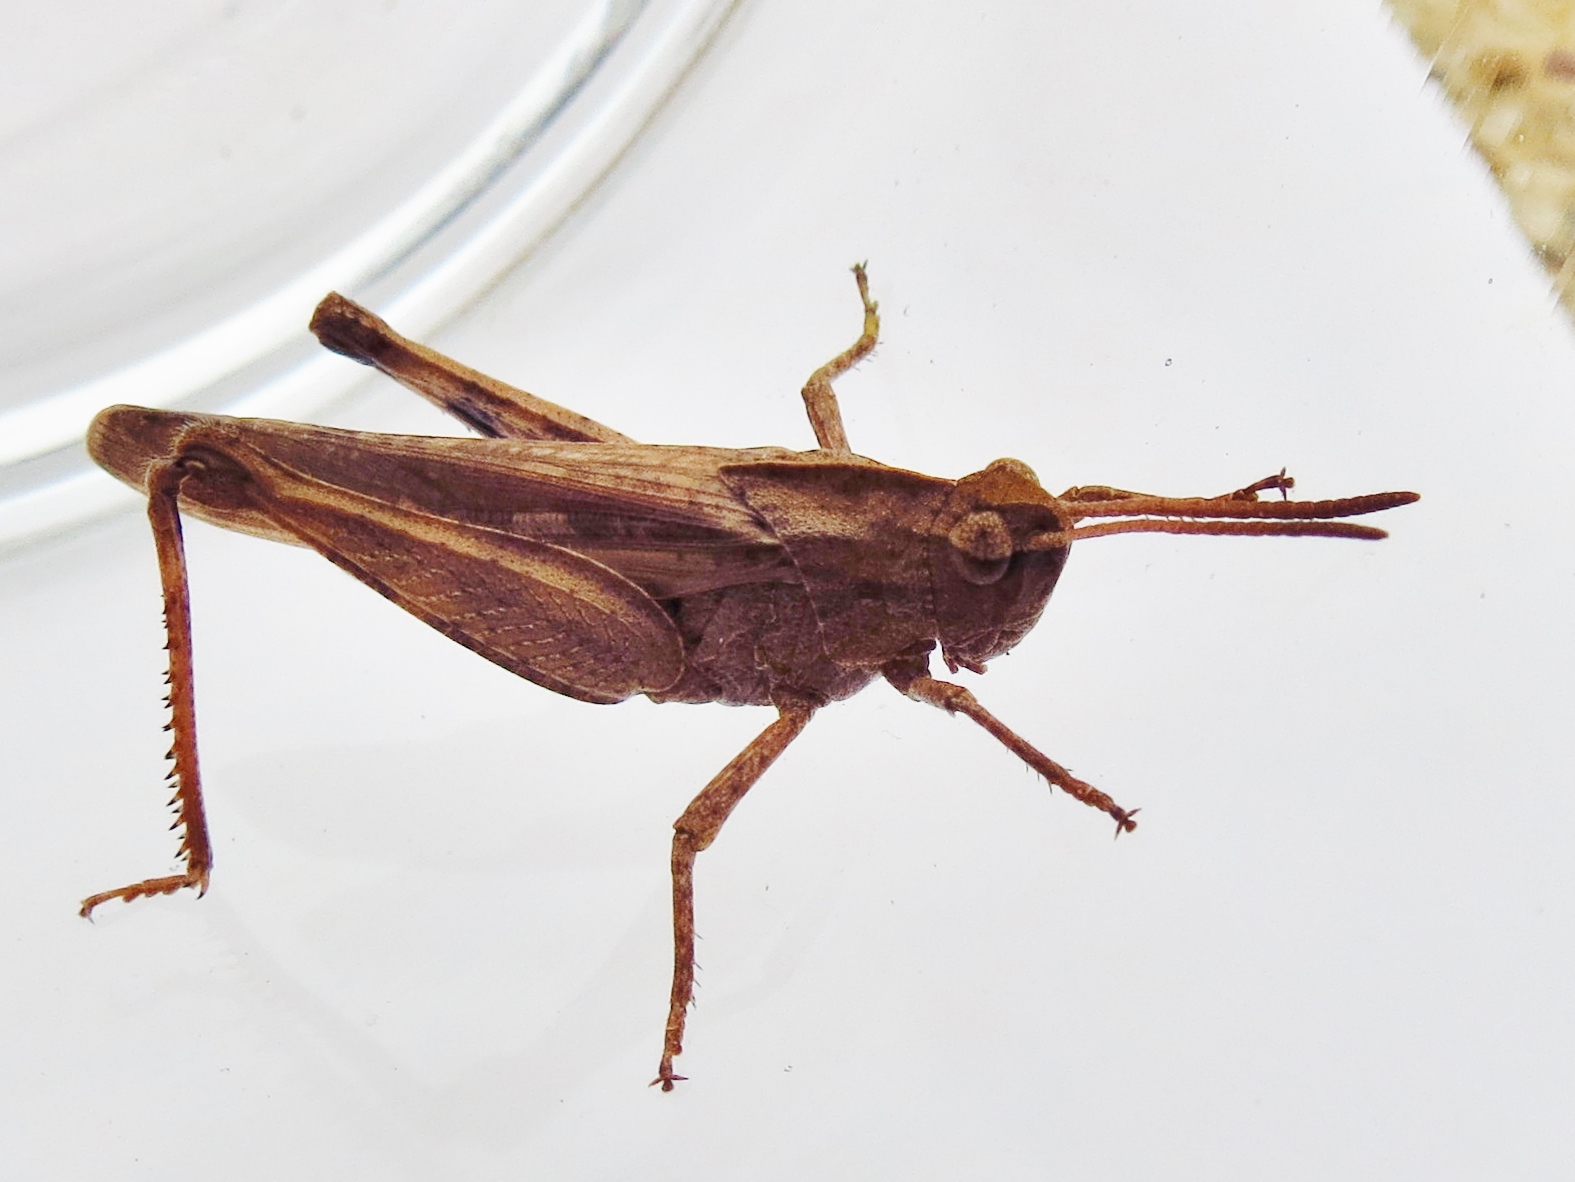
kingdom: Animalia
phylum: Arthropoda
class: Insecta
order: Orthoptera
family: Acrididae
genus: Chortophaga
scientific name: Chortophaga viridifasciata
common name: Green-striped grasshopper
